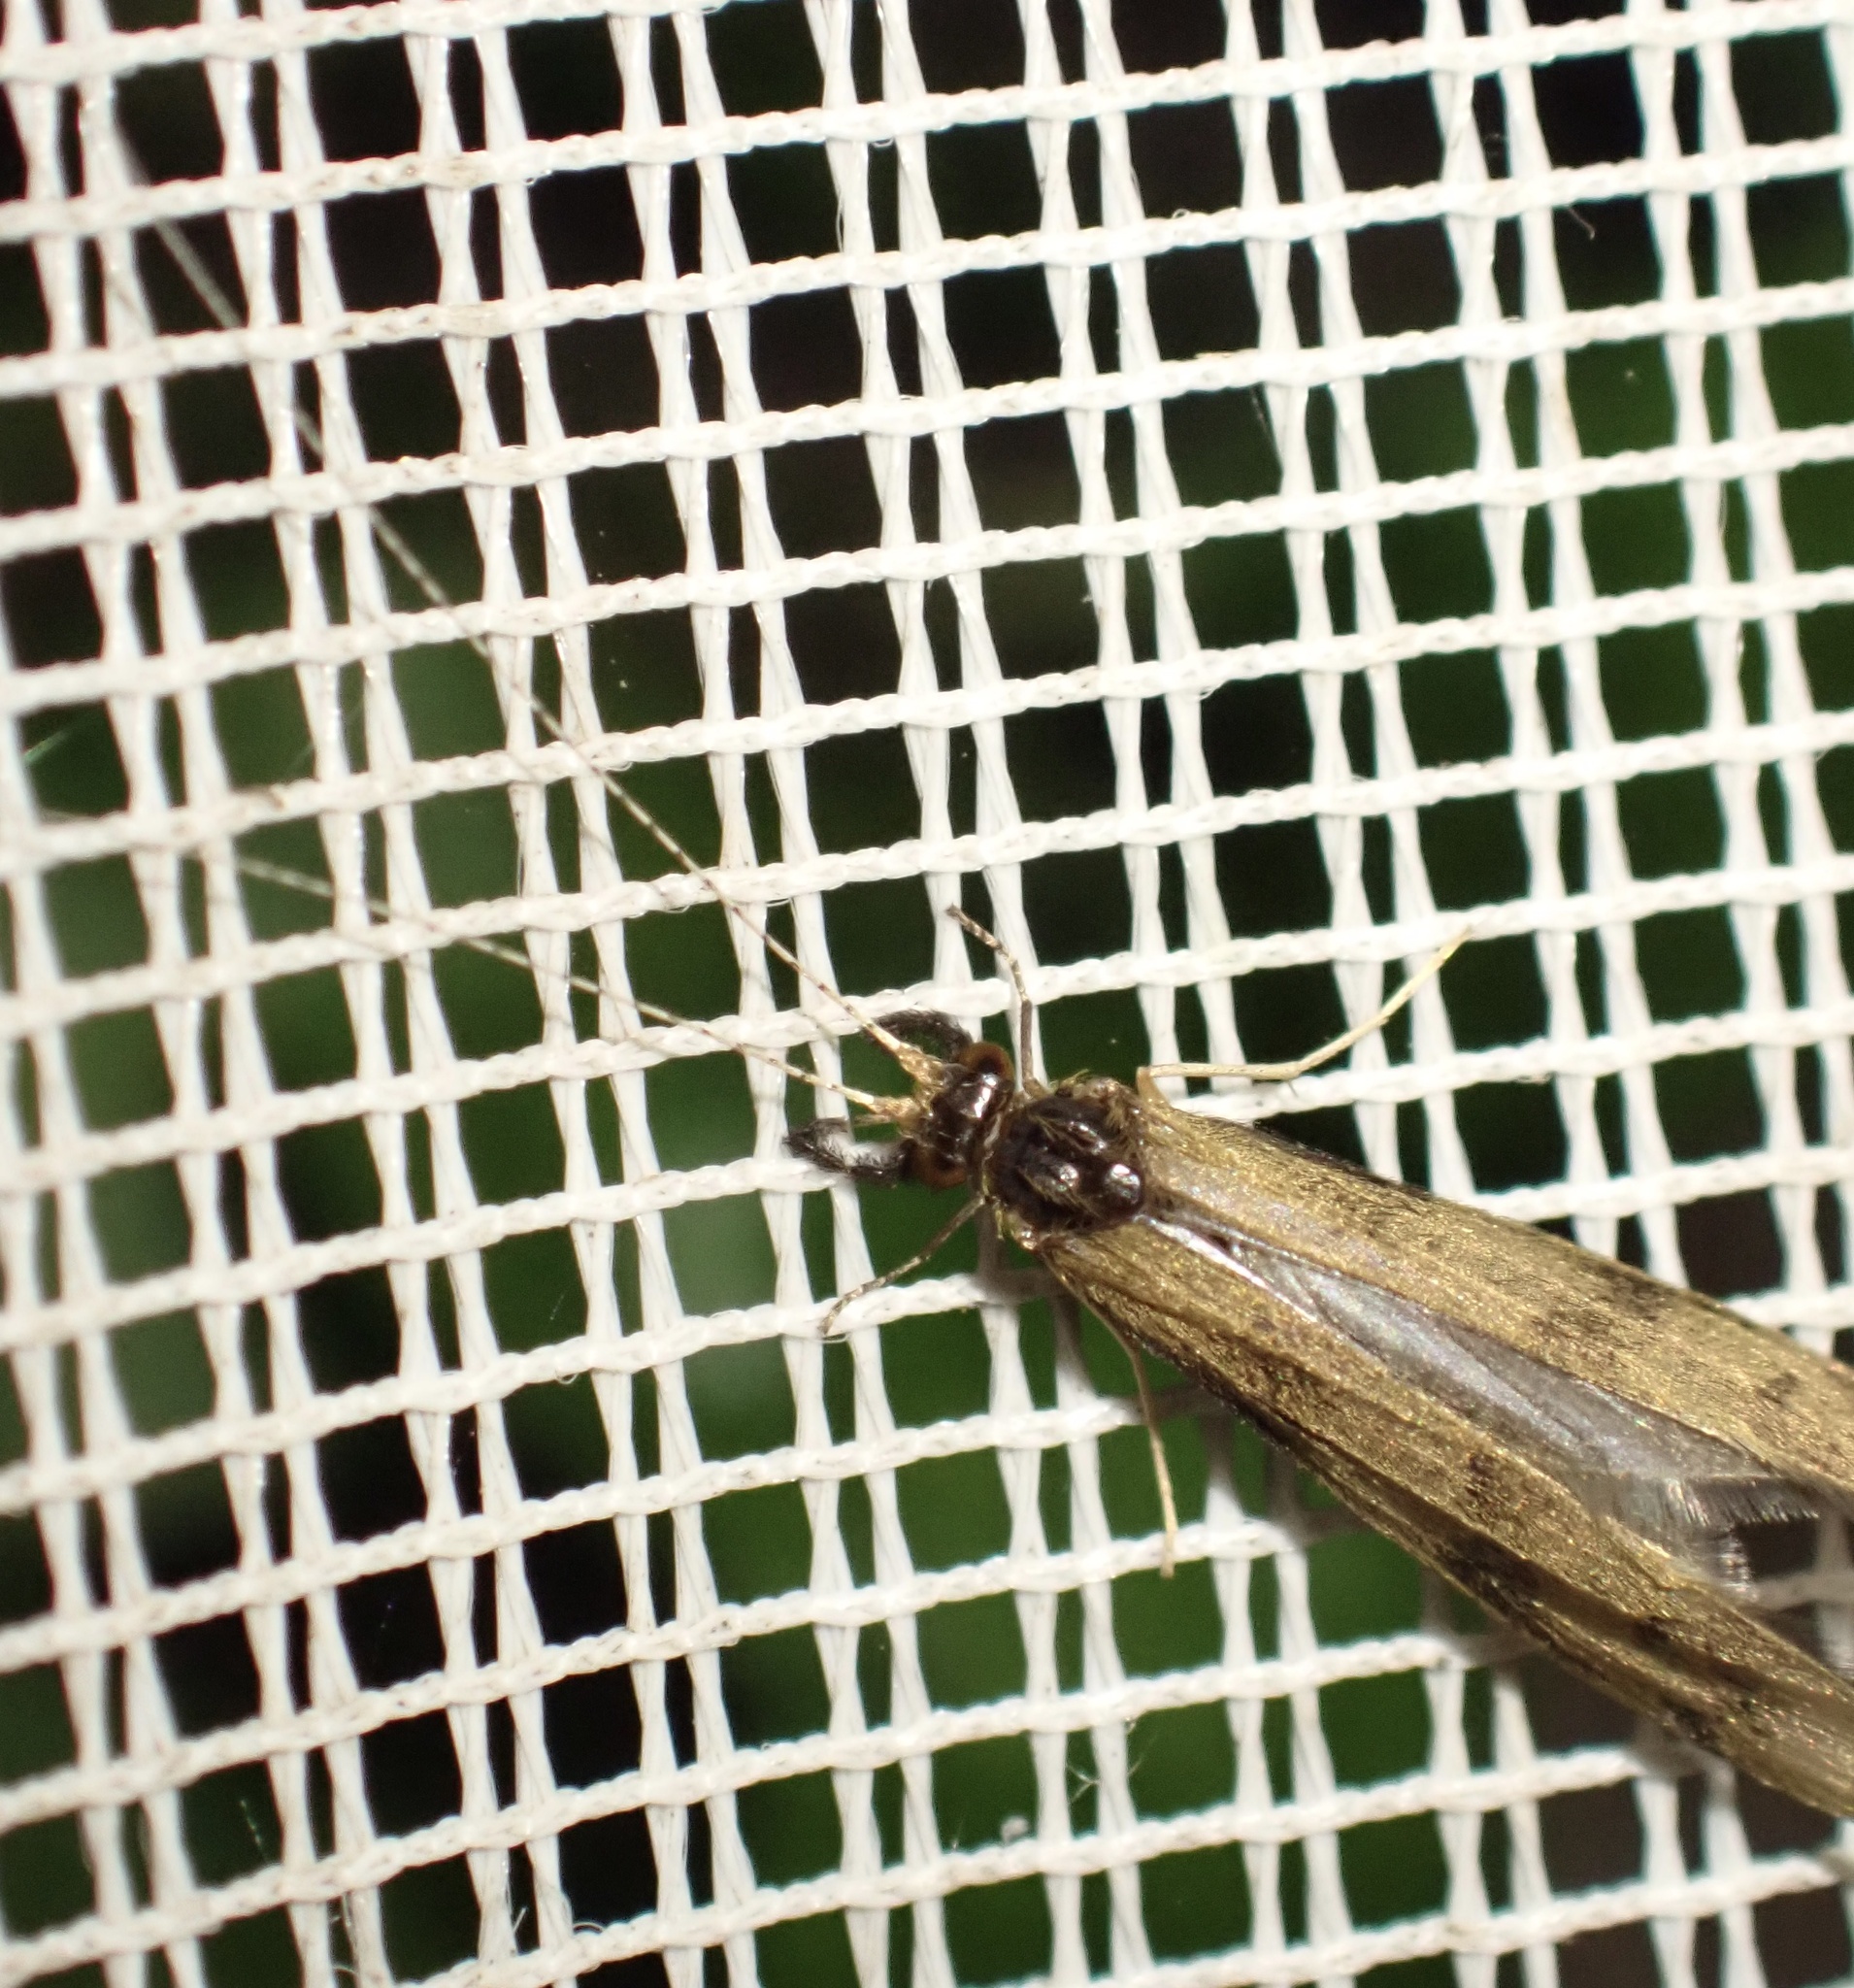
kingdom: Animalia
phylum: Arthropoda
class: Insecta
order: Trichoptera
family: Leptoceridae
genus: Mystacides
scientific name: Mystacides longicornis
